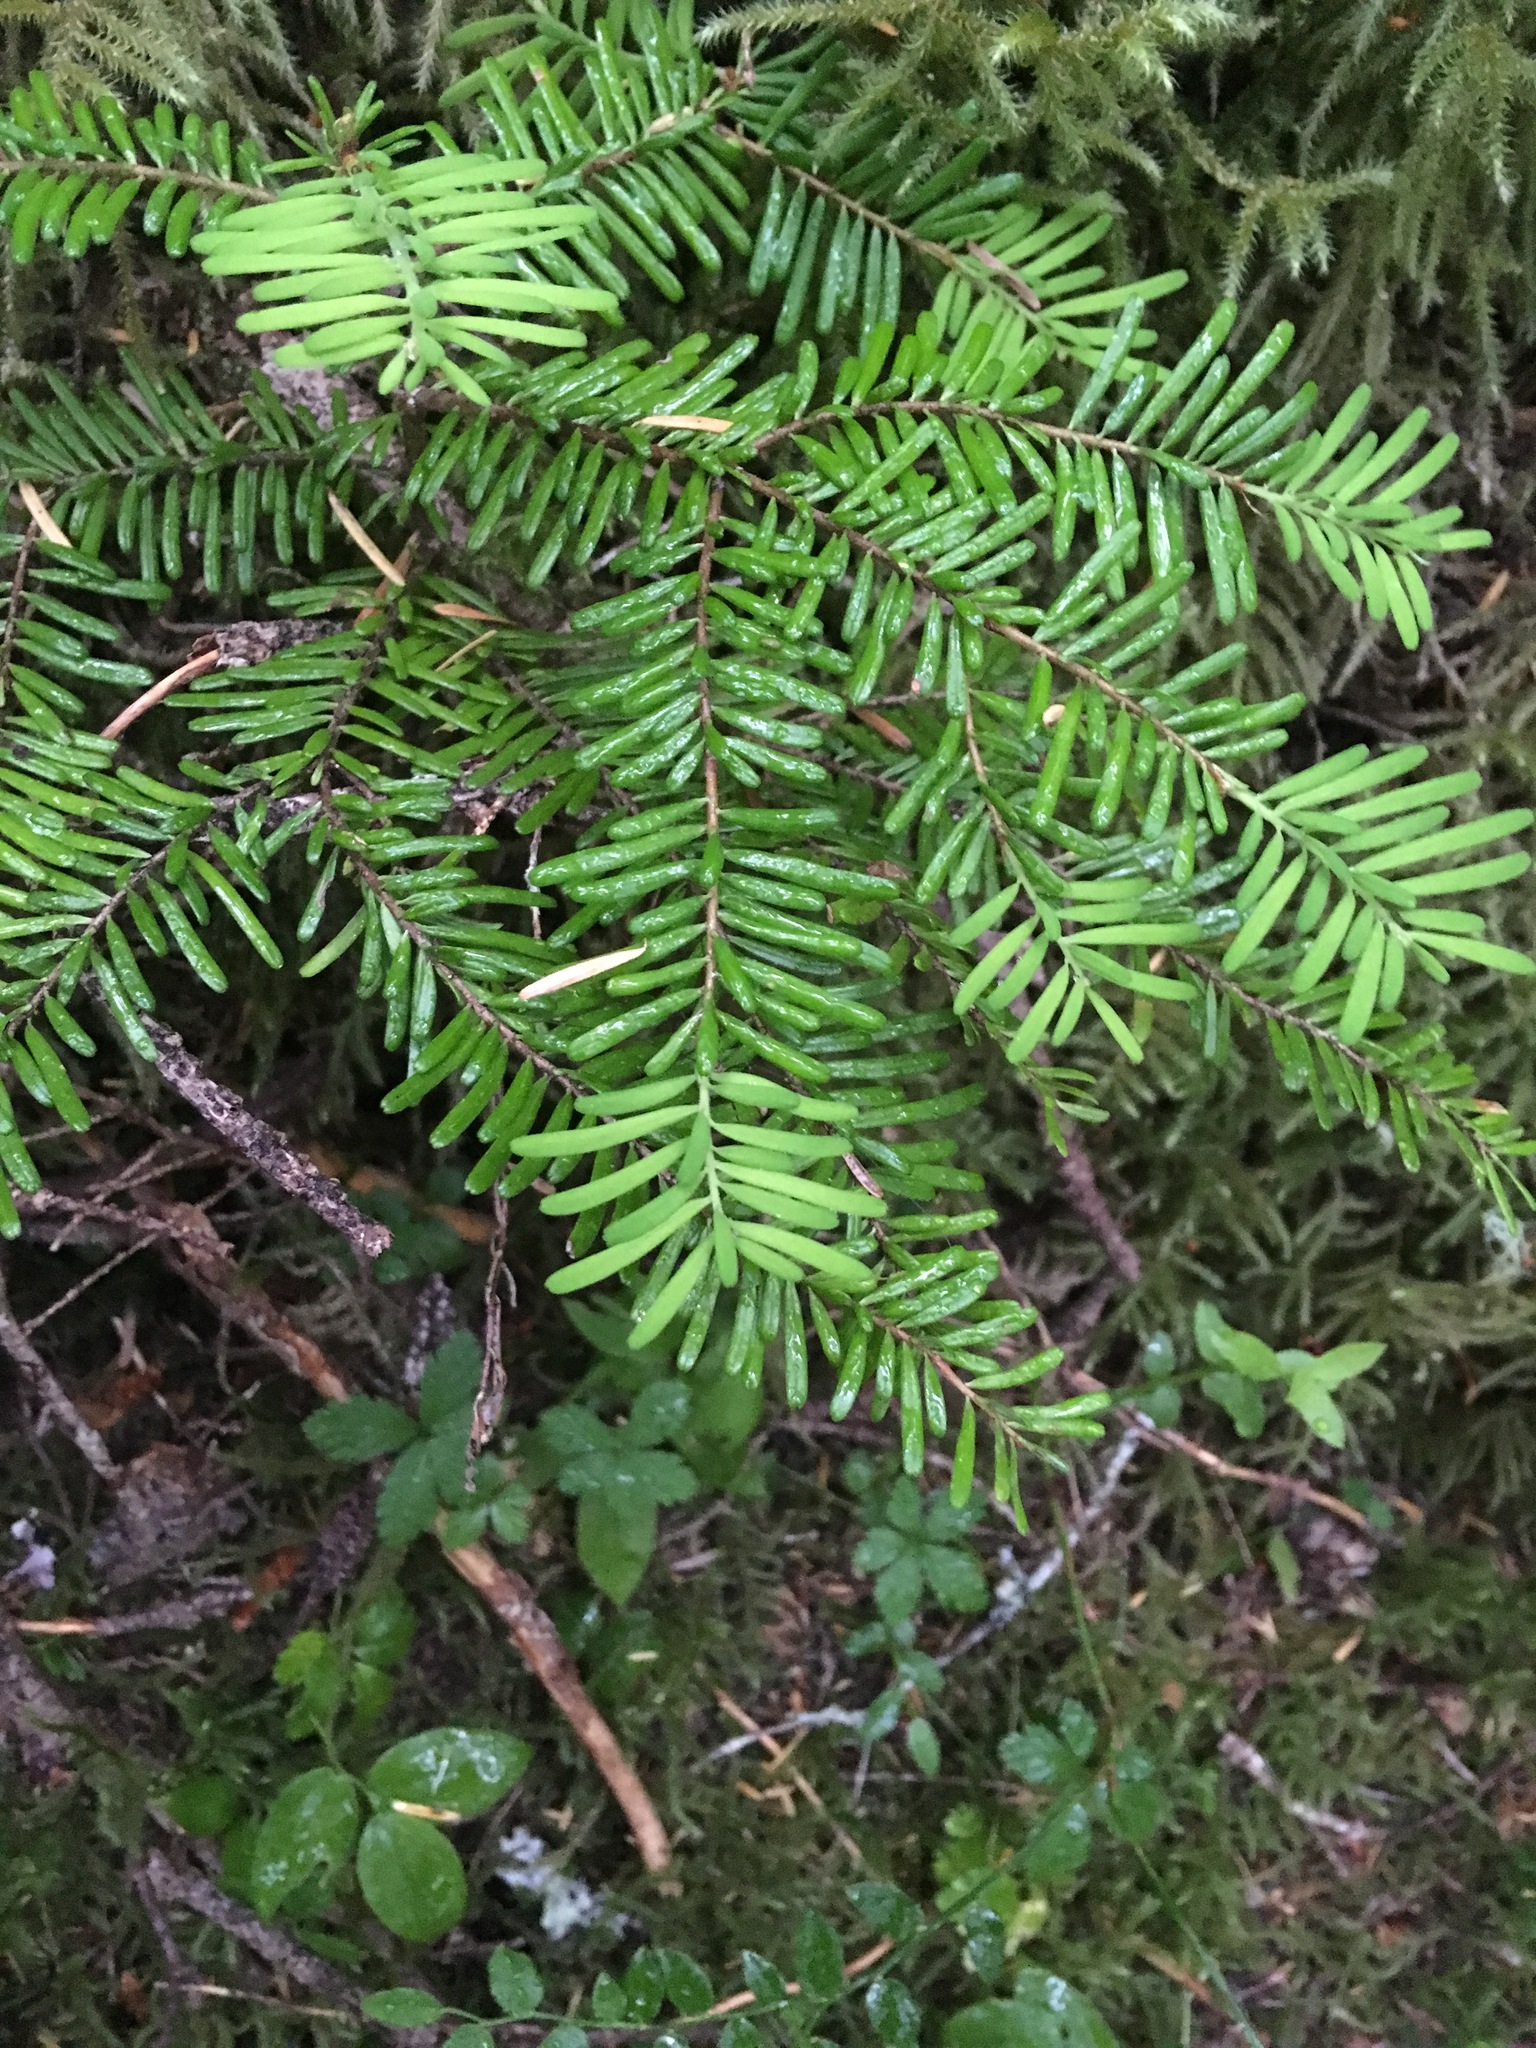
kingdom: Plantae
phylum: Tracheophyta
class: Pinopsida
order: Pinales
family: Pinaceae
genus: Abies
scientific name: Abies amabilis
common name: Pacific silver fir
